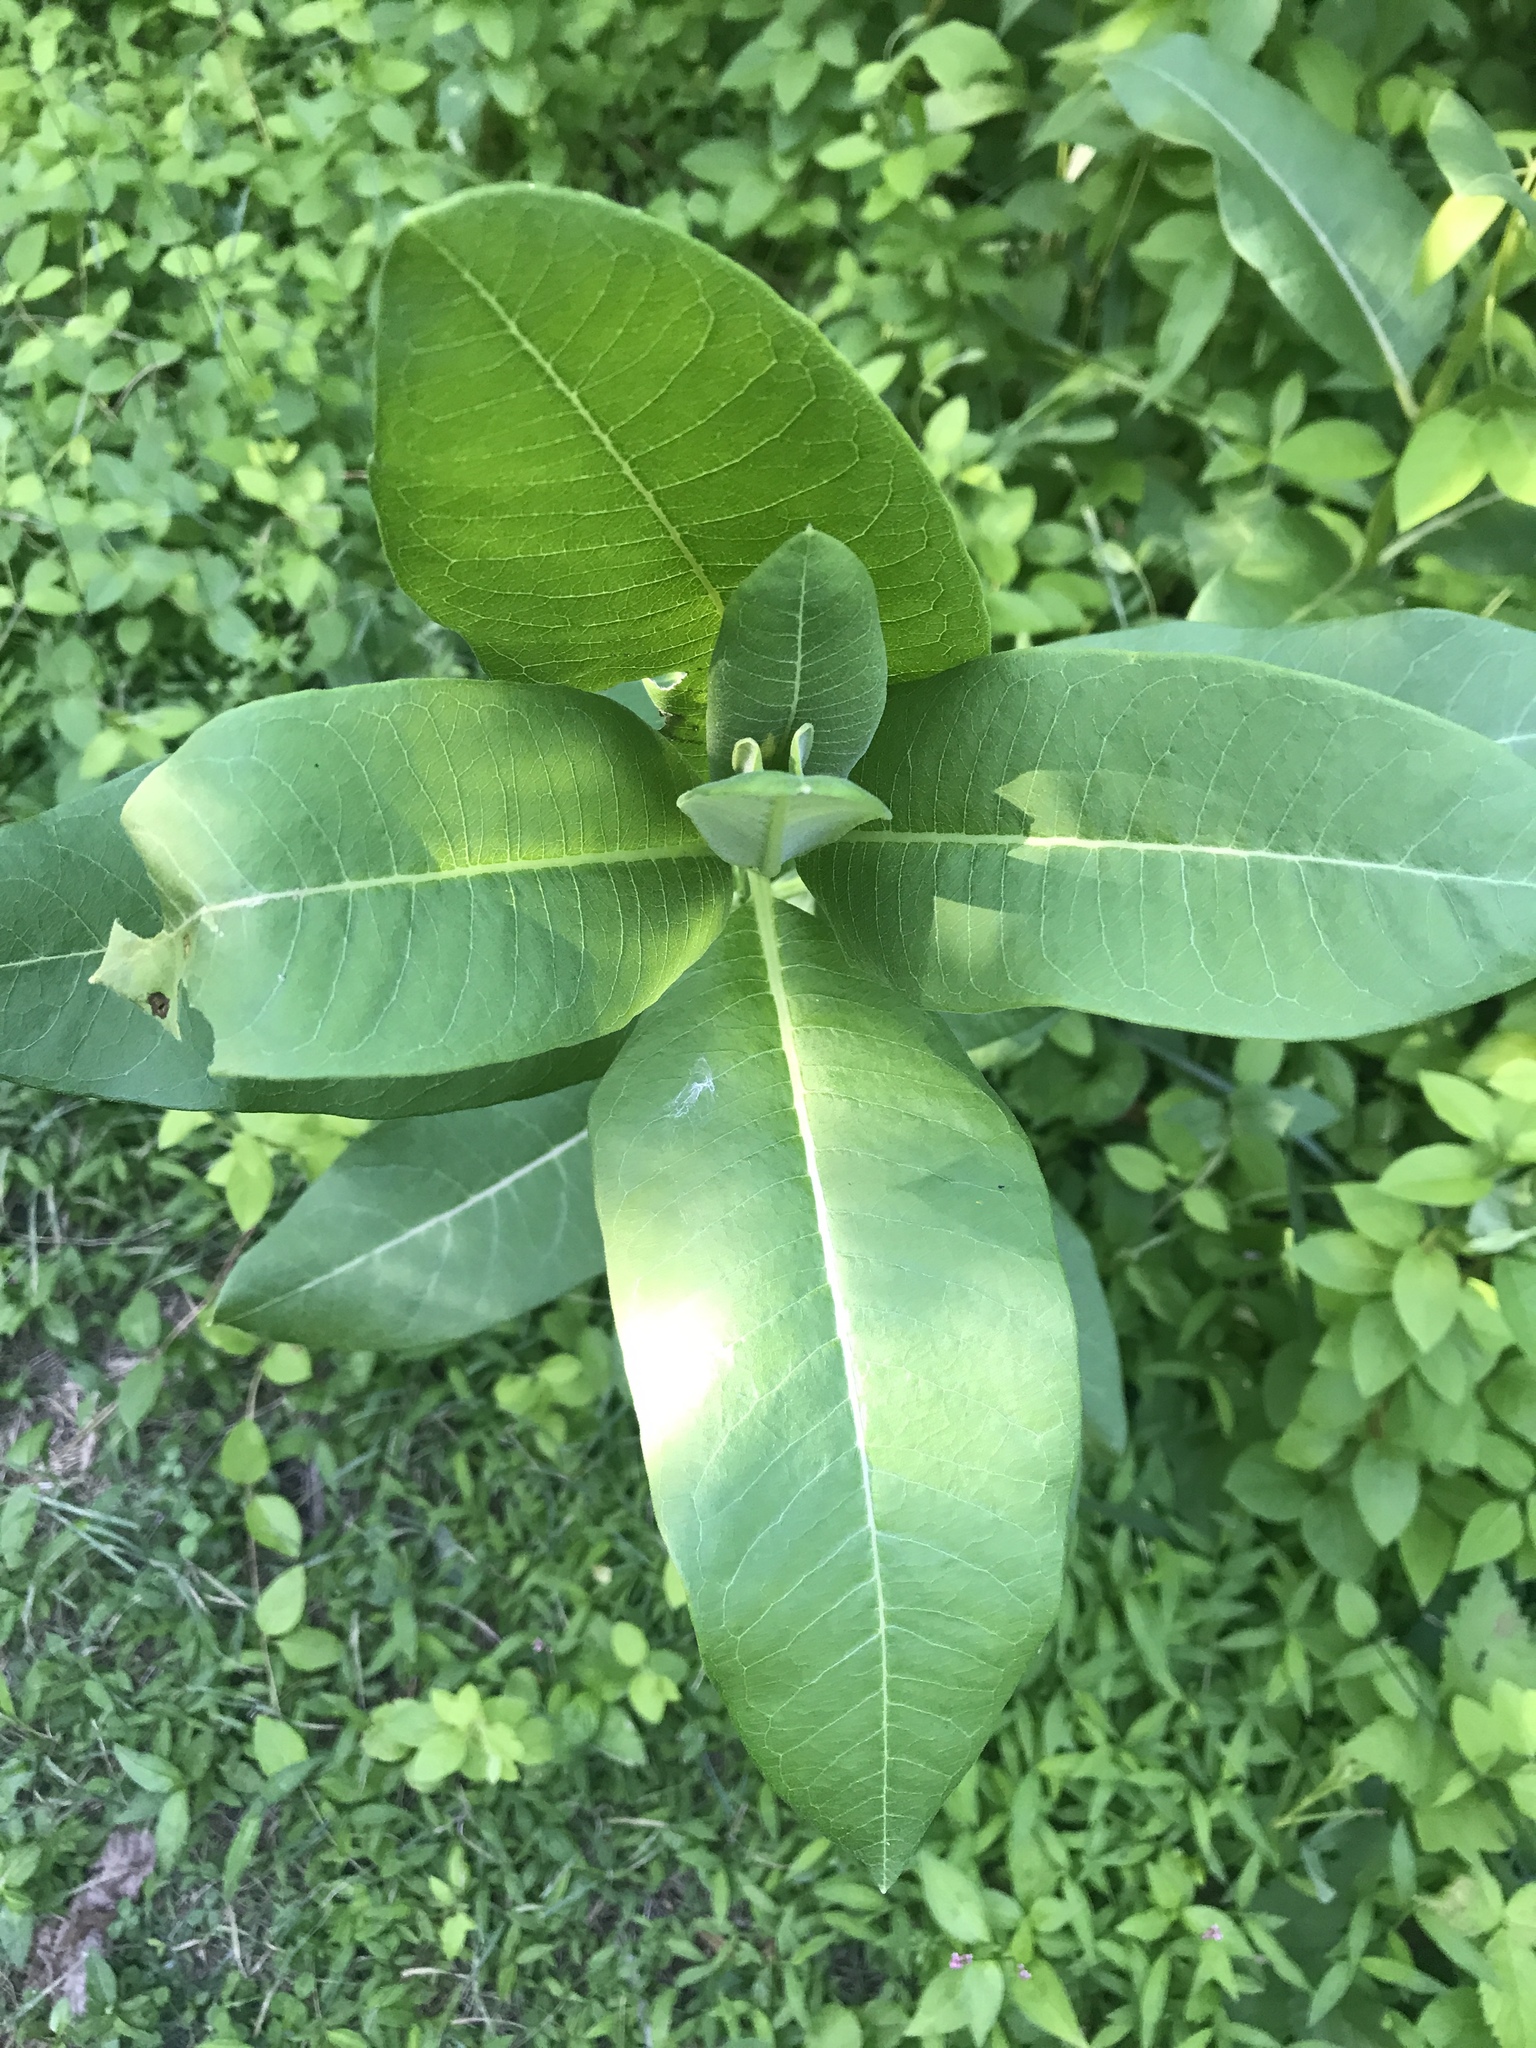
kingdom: Plantae
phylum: Tracheophyta
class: Magnoliopsida
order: Gentianales
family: Apocynaceae
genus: Asclepias
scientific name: Asclepias syriaca
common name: Common milkweed
